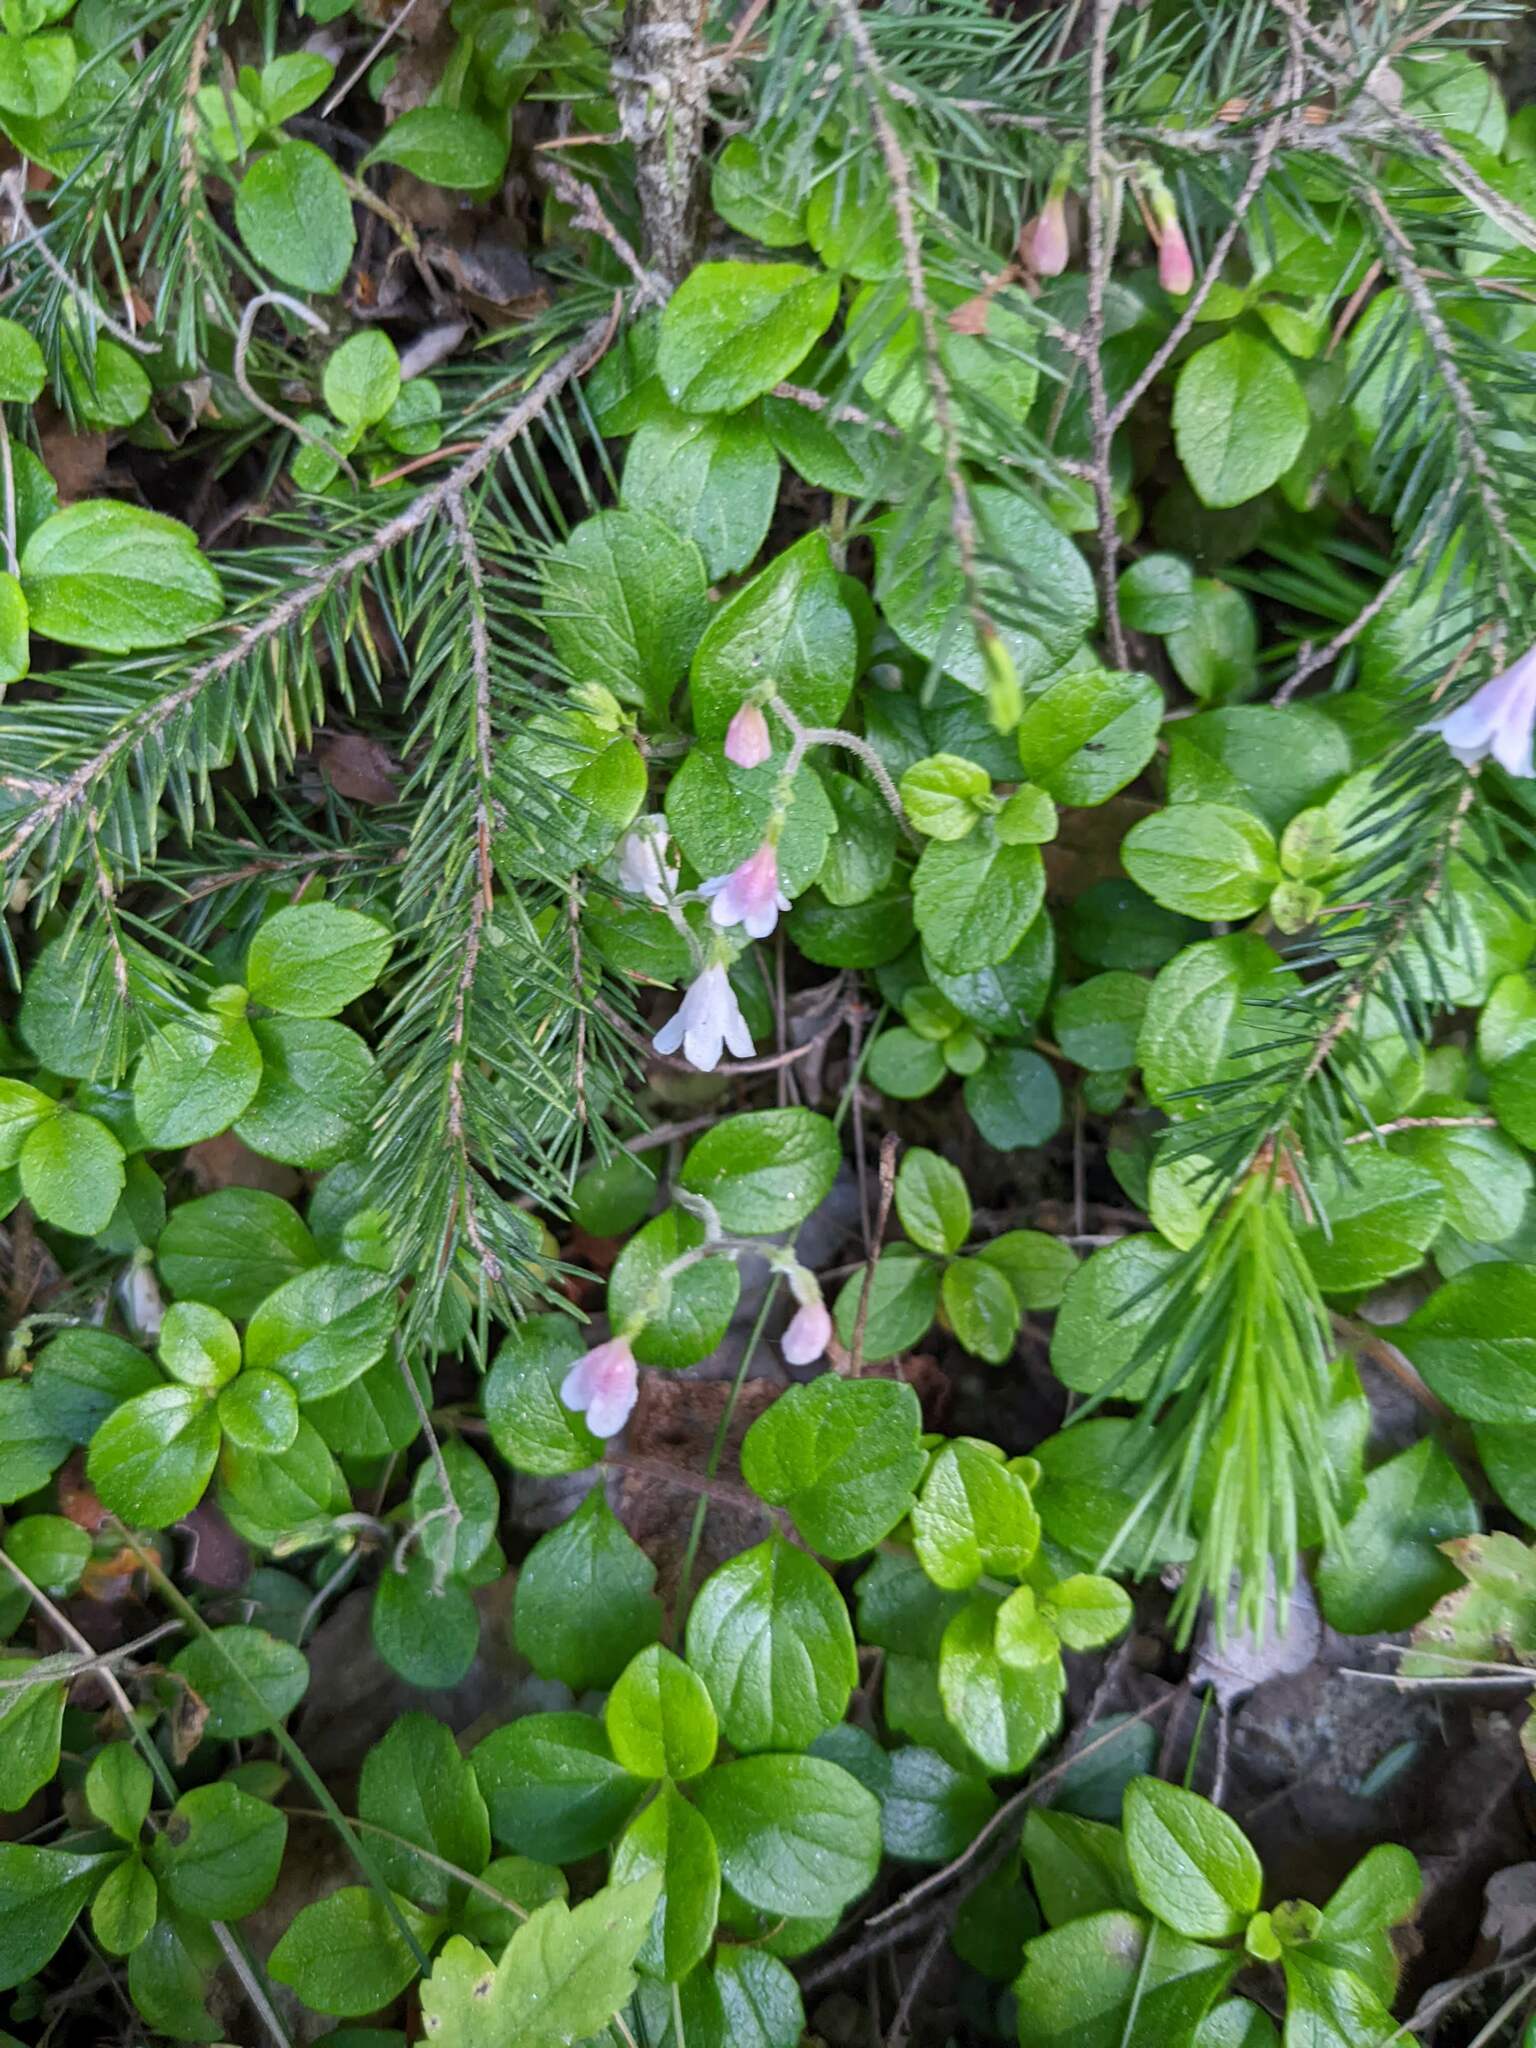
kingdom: Plantae
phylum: Tracheophyta
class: Magnoliopsida
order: Dipsacales
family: Caprifoliaceae
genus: Linnaea
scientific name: Linnaea borealis
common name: Twinflower
